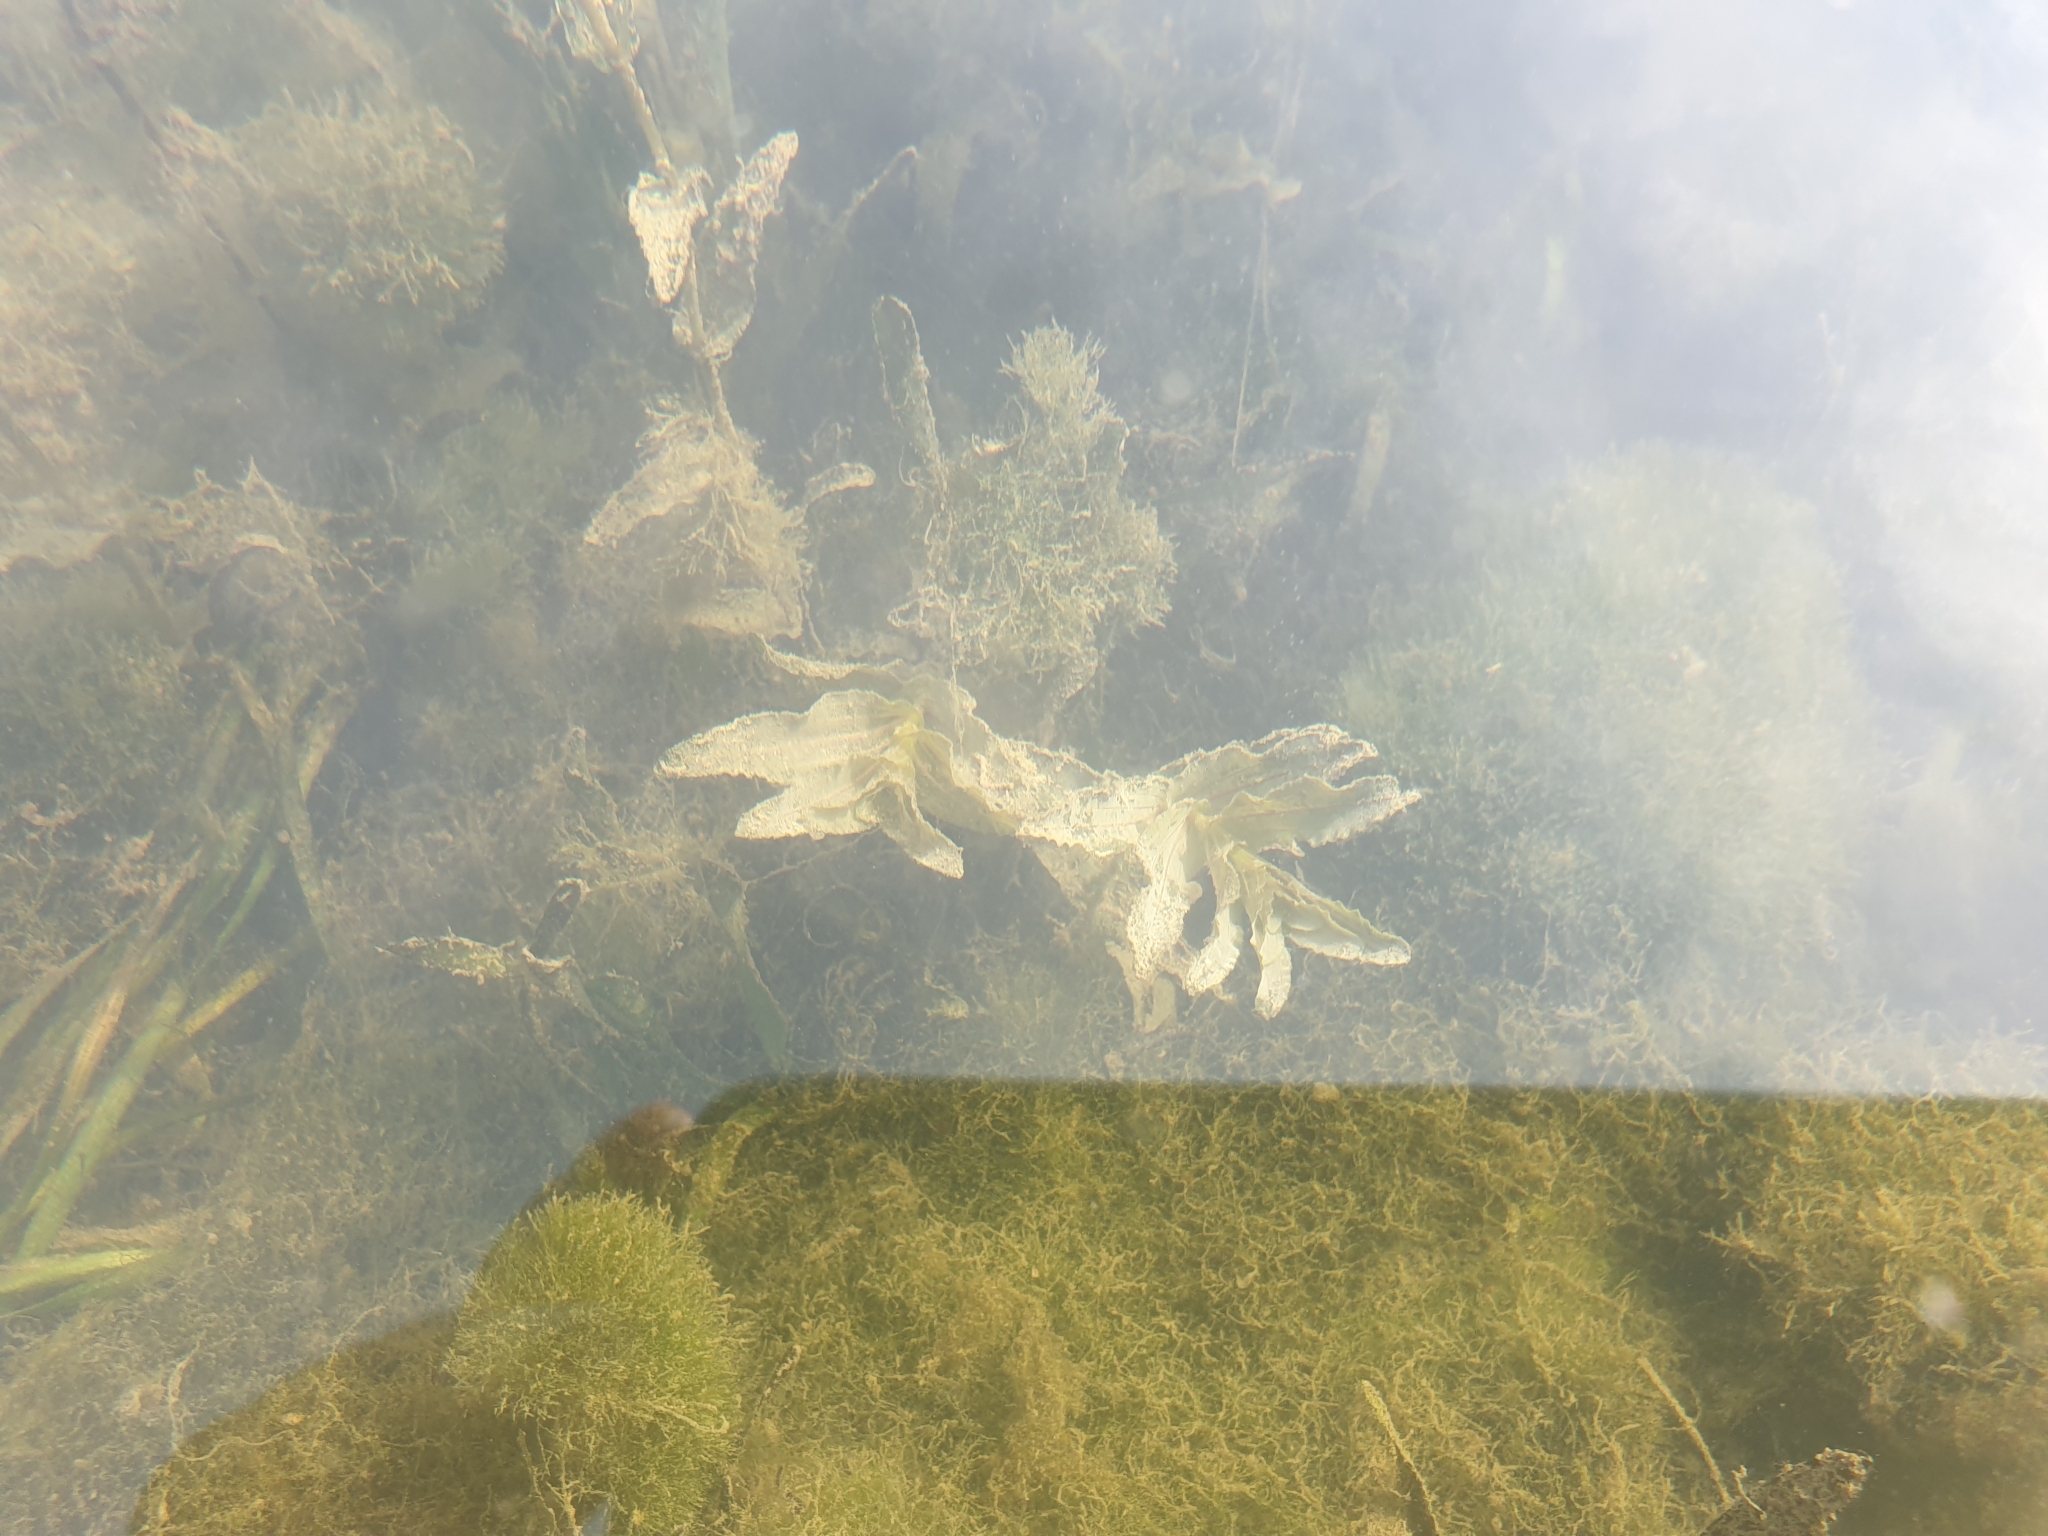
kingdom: Plantae
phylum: Tracheophyta
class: Liliopsida
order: Alismatales
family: Potamogetonaceae
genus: Potamogeton
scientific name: Potamogeton perfoliatus
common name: Perfoliate pondweed
